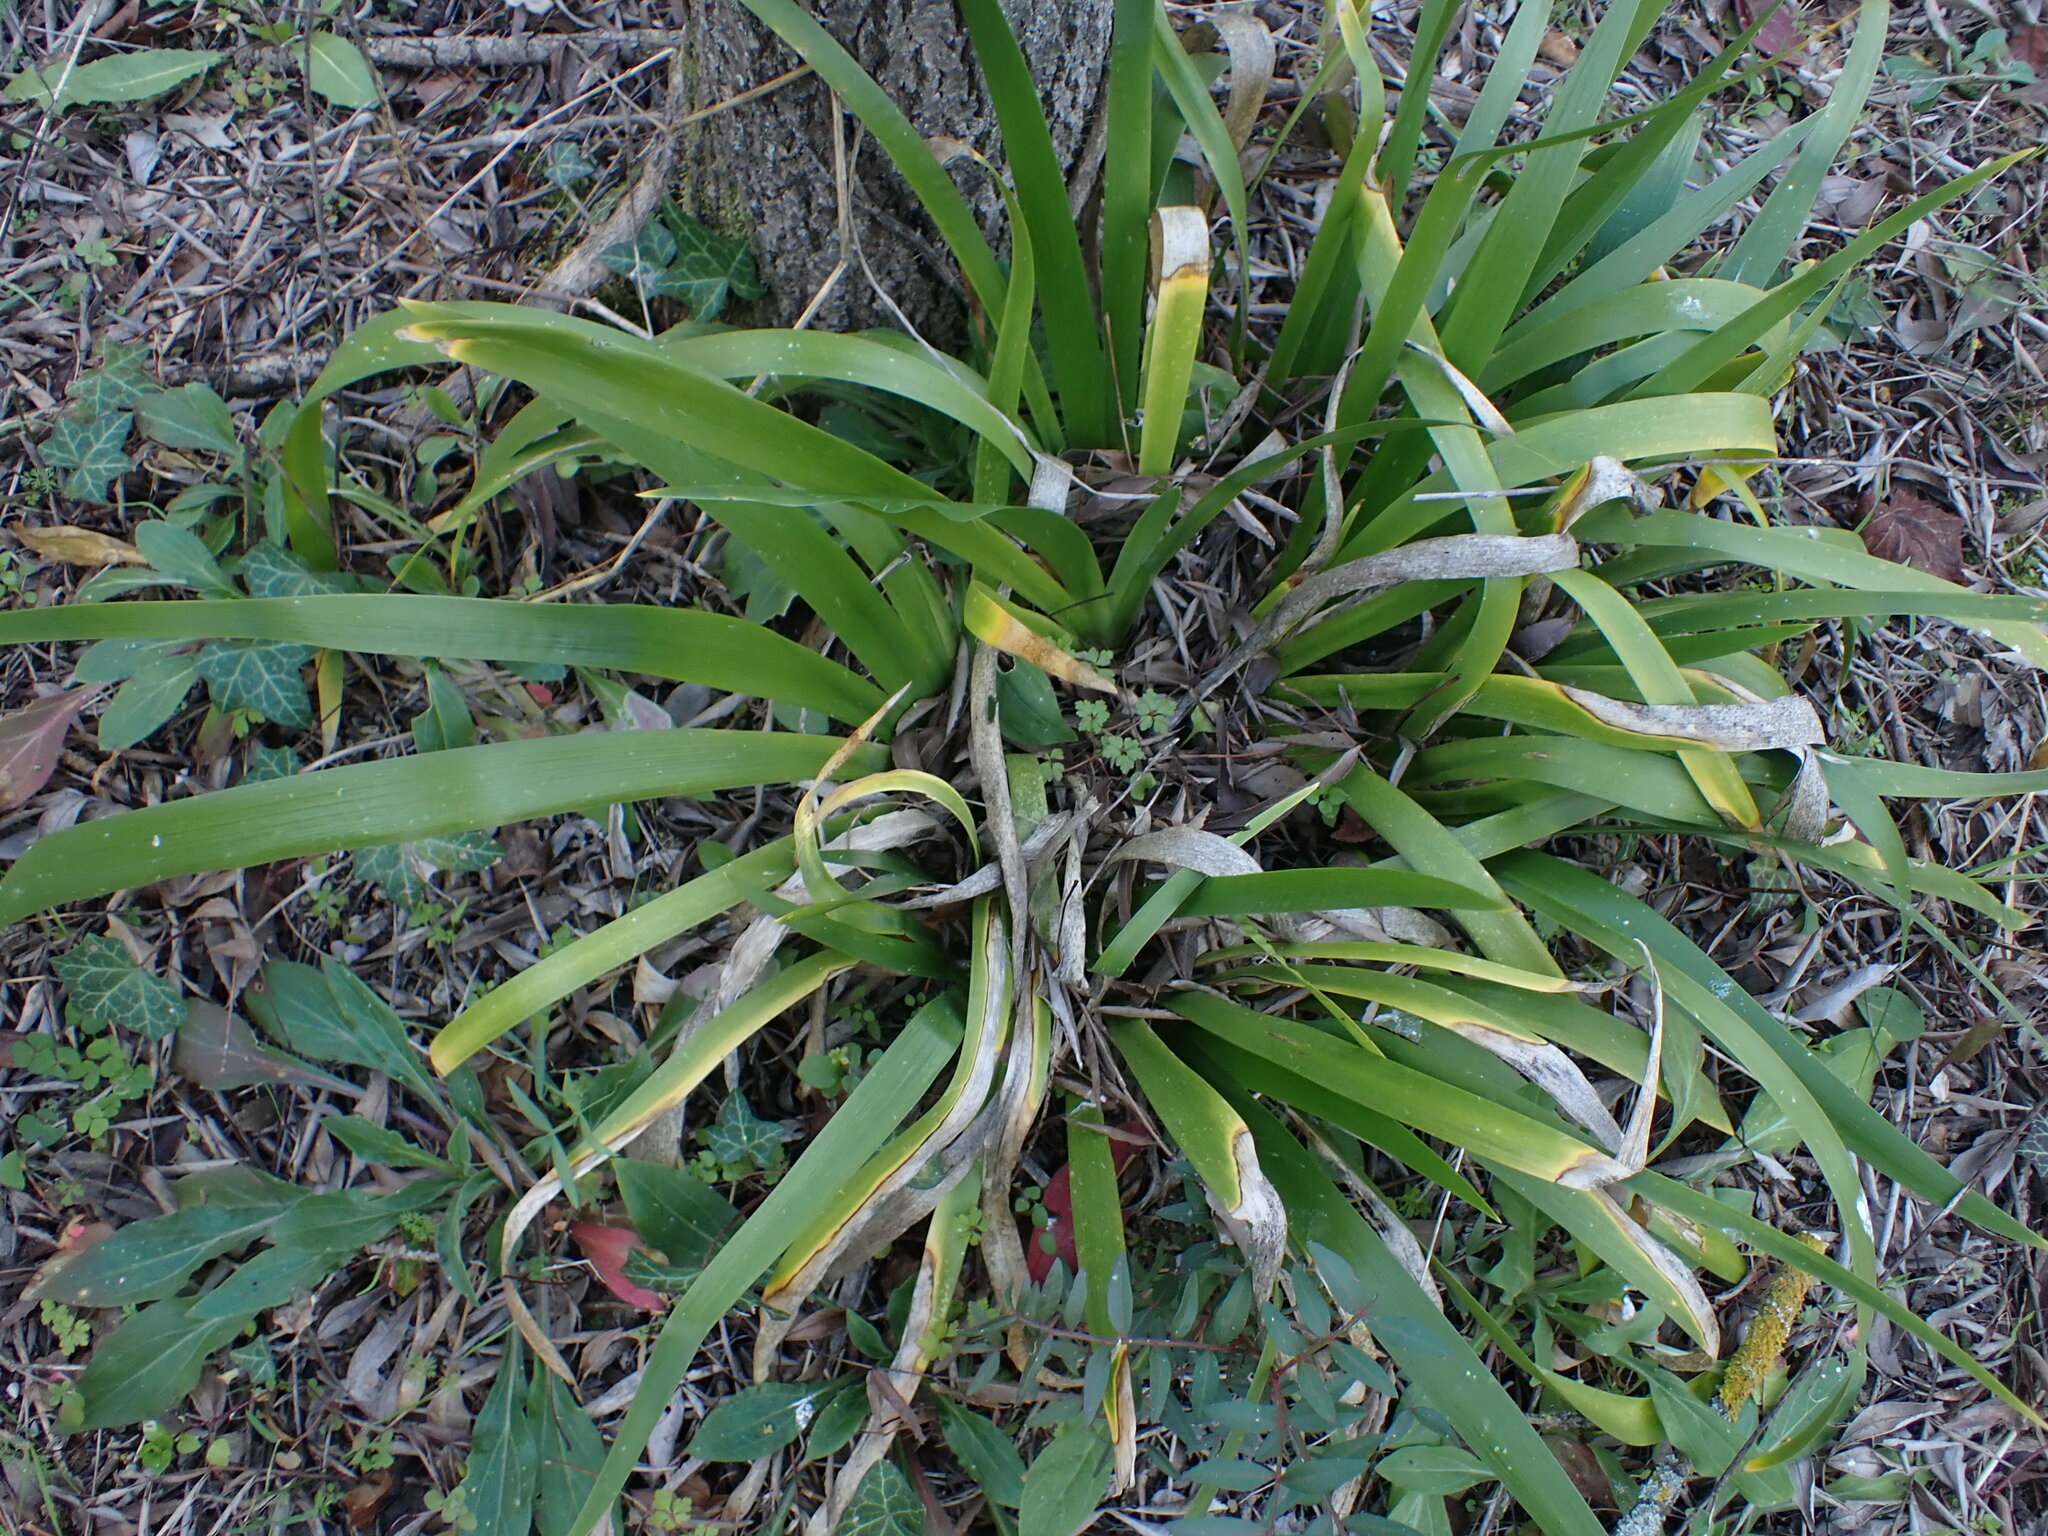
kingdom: Plantae
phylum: Tracheophyta
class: Liliopsida
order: Asparagales
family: Iridaceae
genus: Iris
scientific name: Iris foetidissima
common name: Stinking iris
